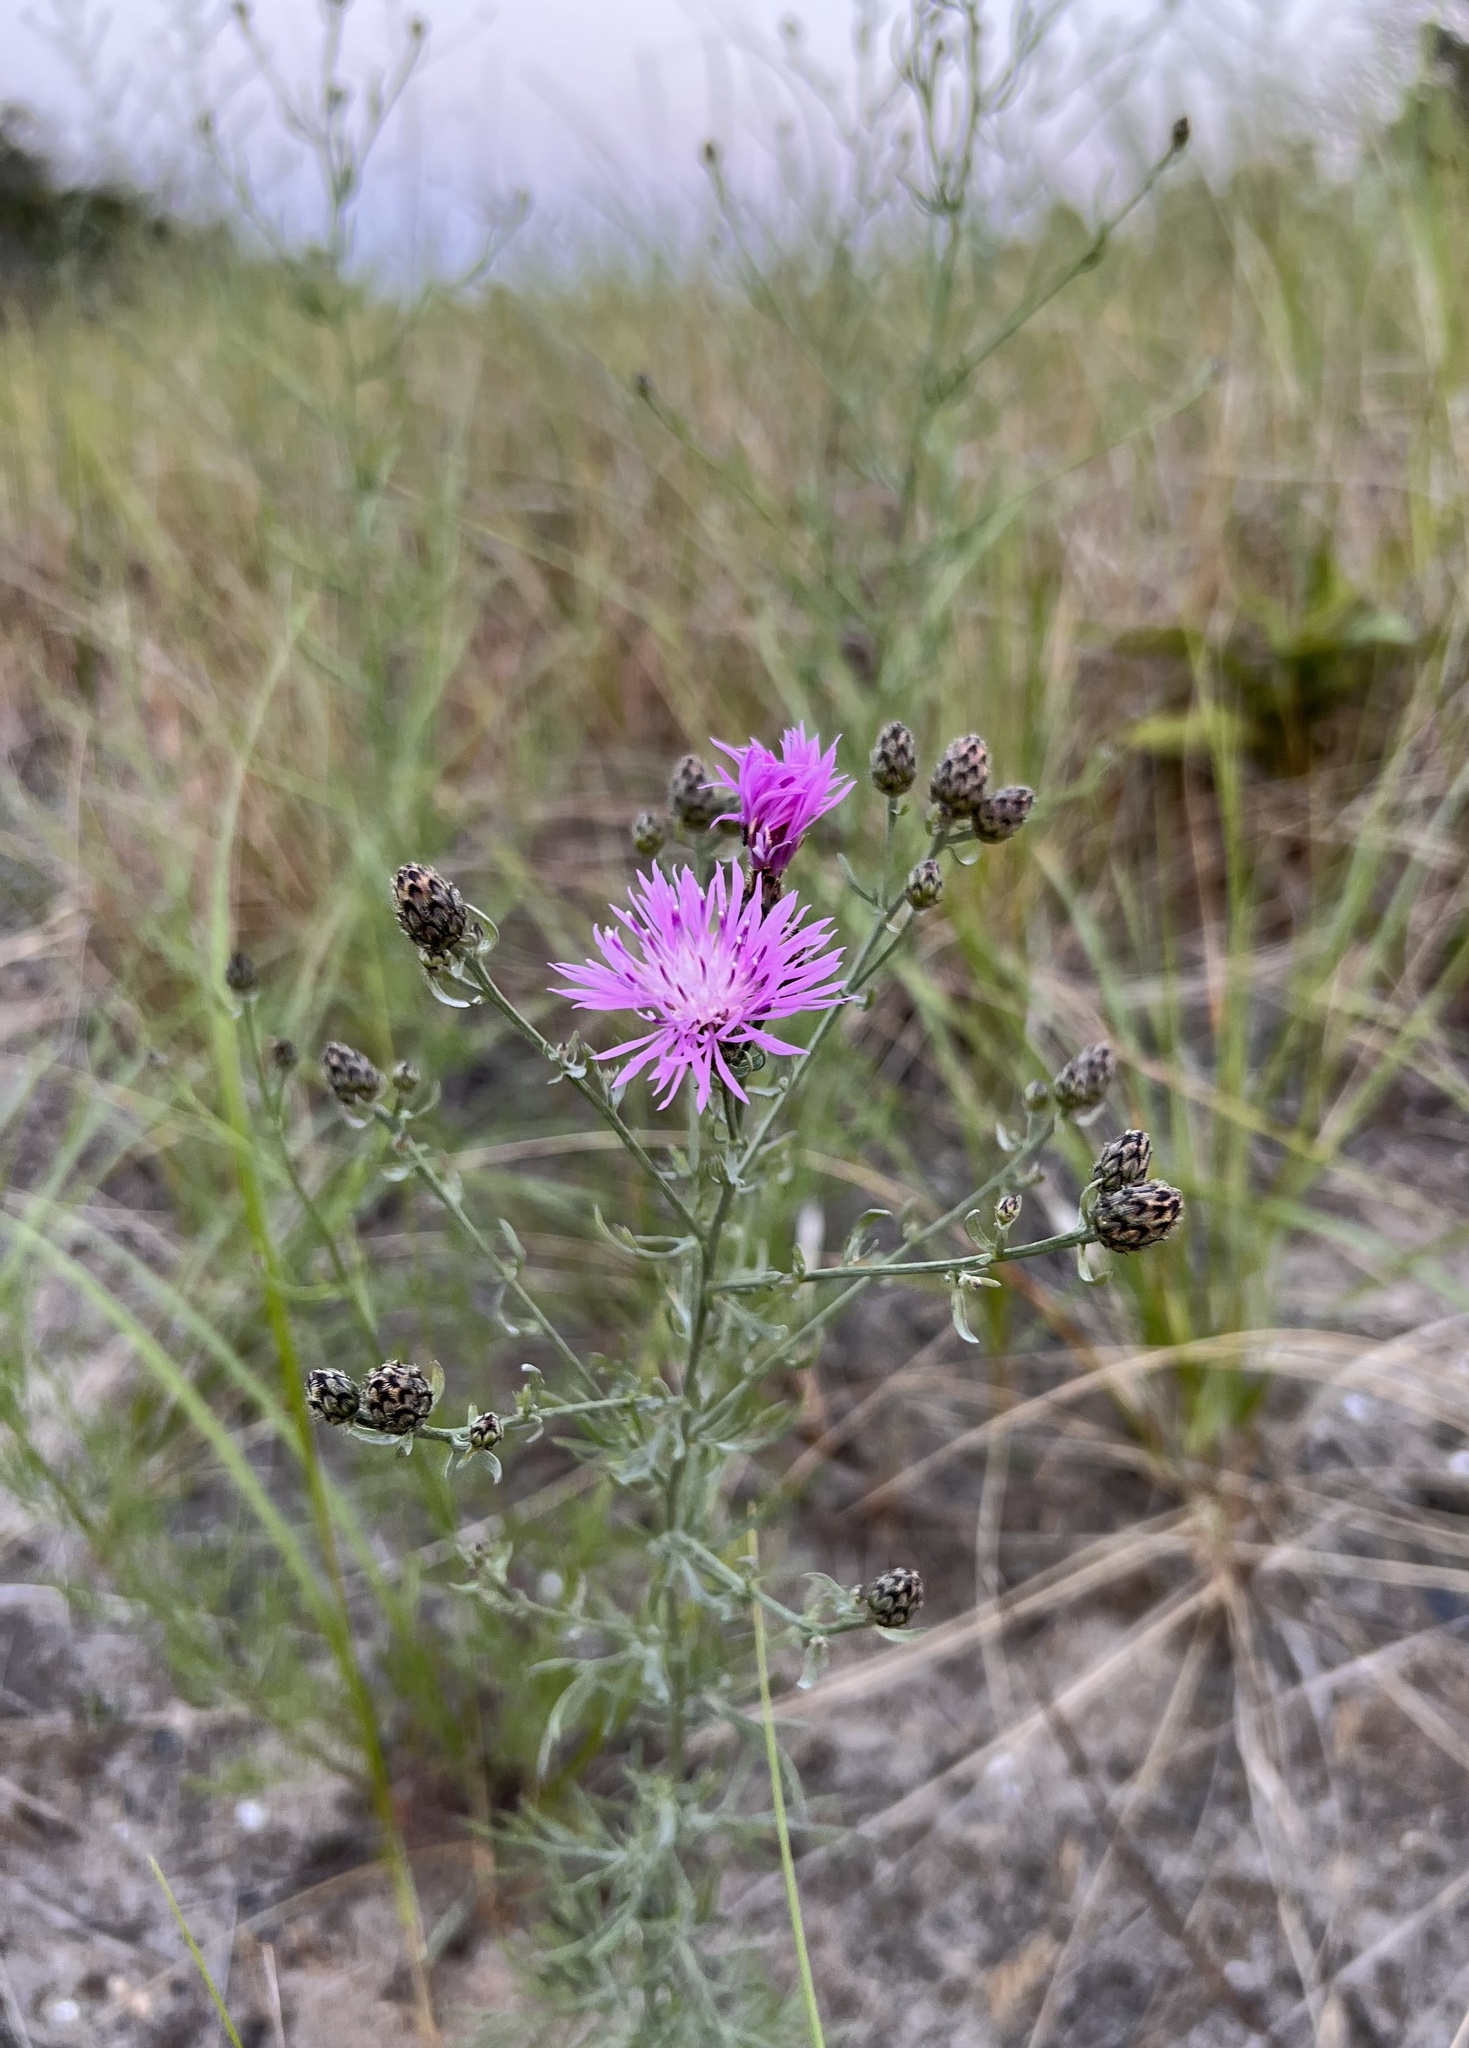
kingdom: Plantae
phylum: Tracheophyta
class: Magnoliopsida
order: Asterales
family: Asteraceae
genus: Centaurea
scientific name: Centaurea stoebe
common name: Spotted knapweed
